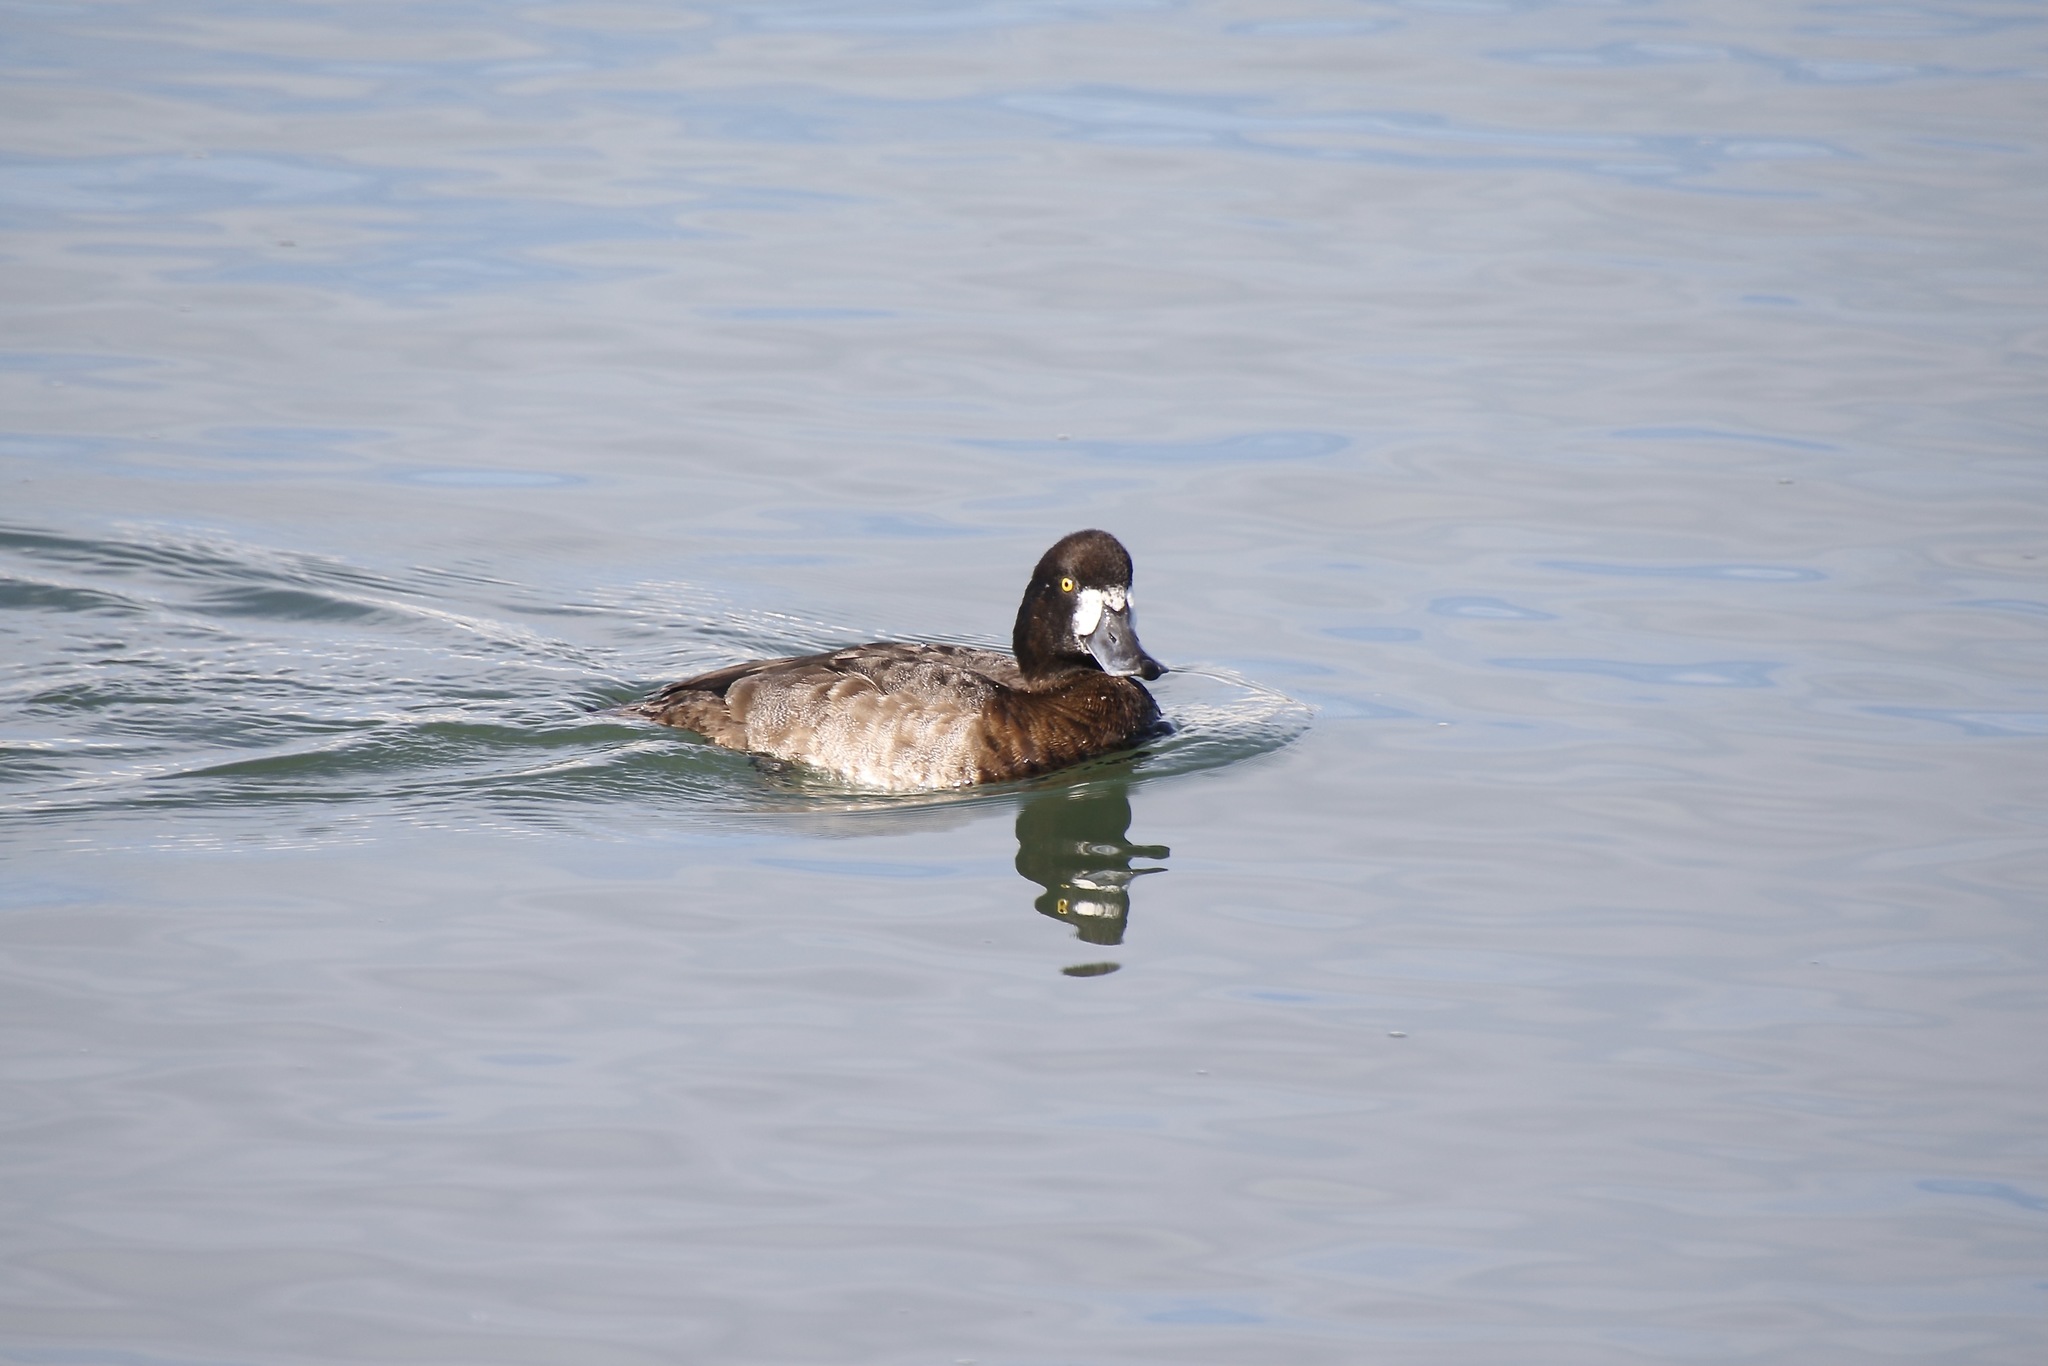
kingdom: Animalia
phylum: Chordata
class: Aves
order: Anseriformes
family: Anatidae
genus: Aythya
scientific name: Aythya marila
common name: Greater scaup
